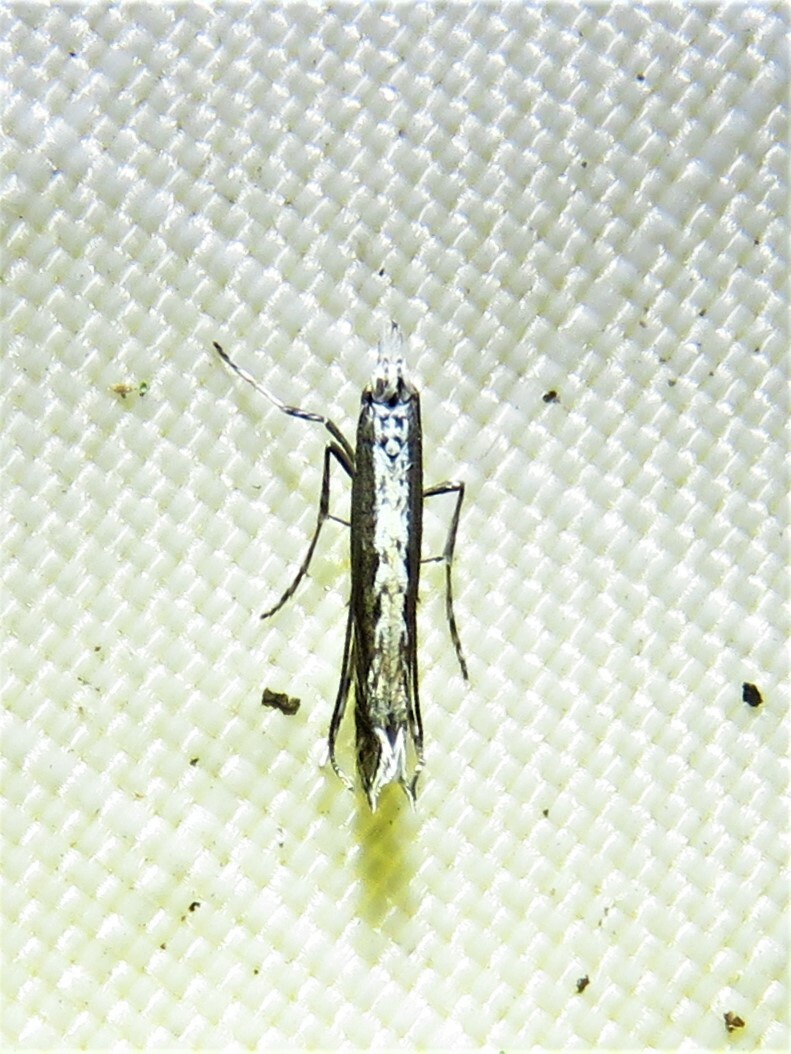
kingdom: Plantae
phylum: Rhodophyta
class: Florideophyceae
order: Gracilariales
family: Gracilariaceae
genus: Gracilaria
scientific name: Gracilaria
